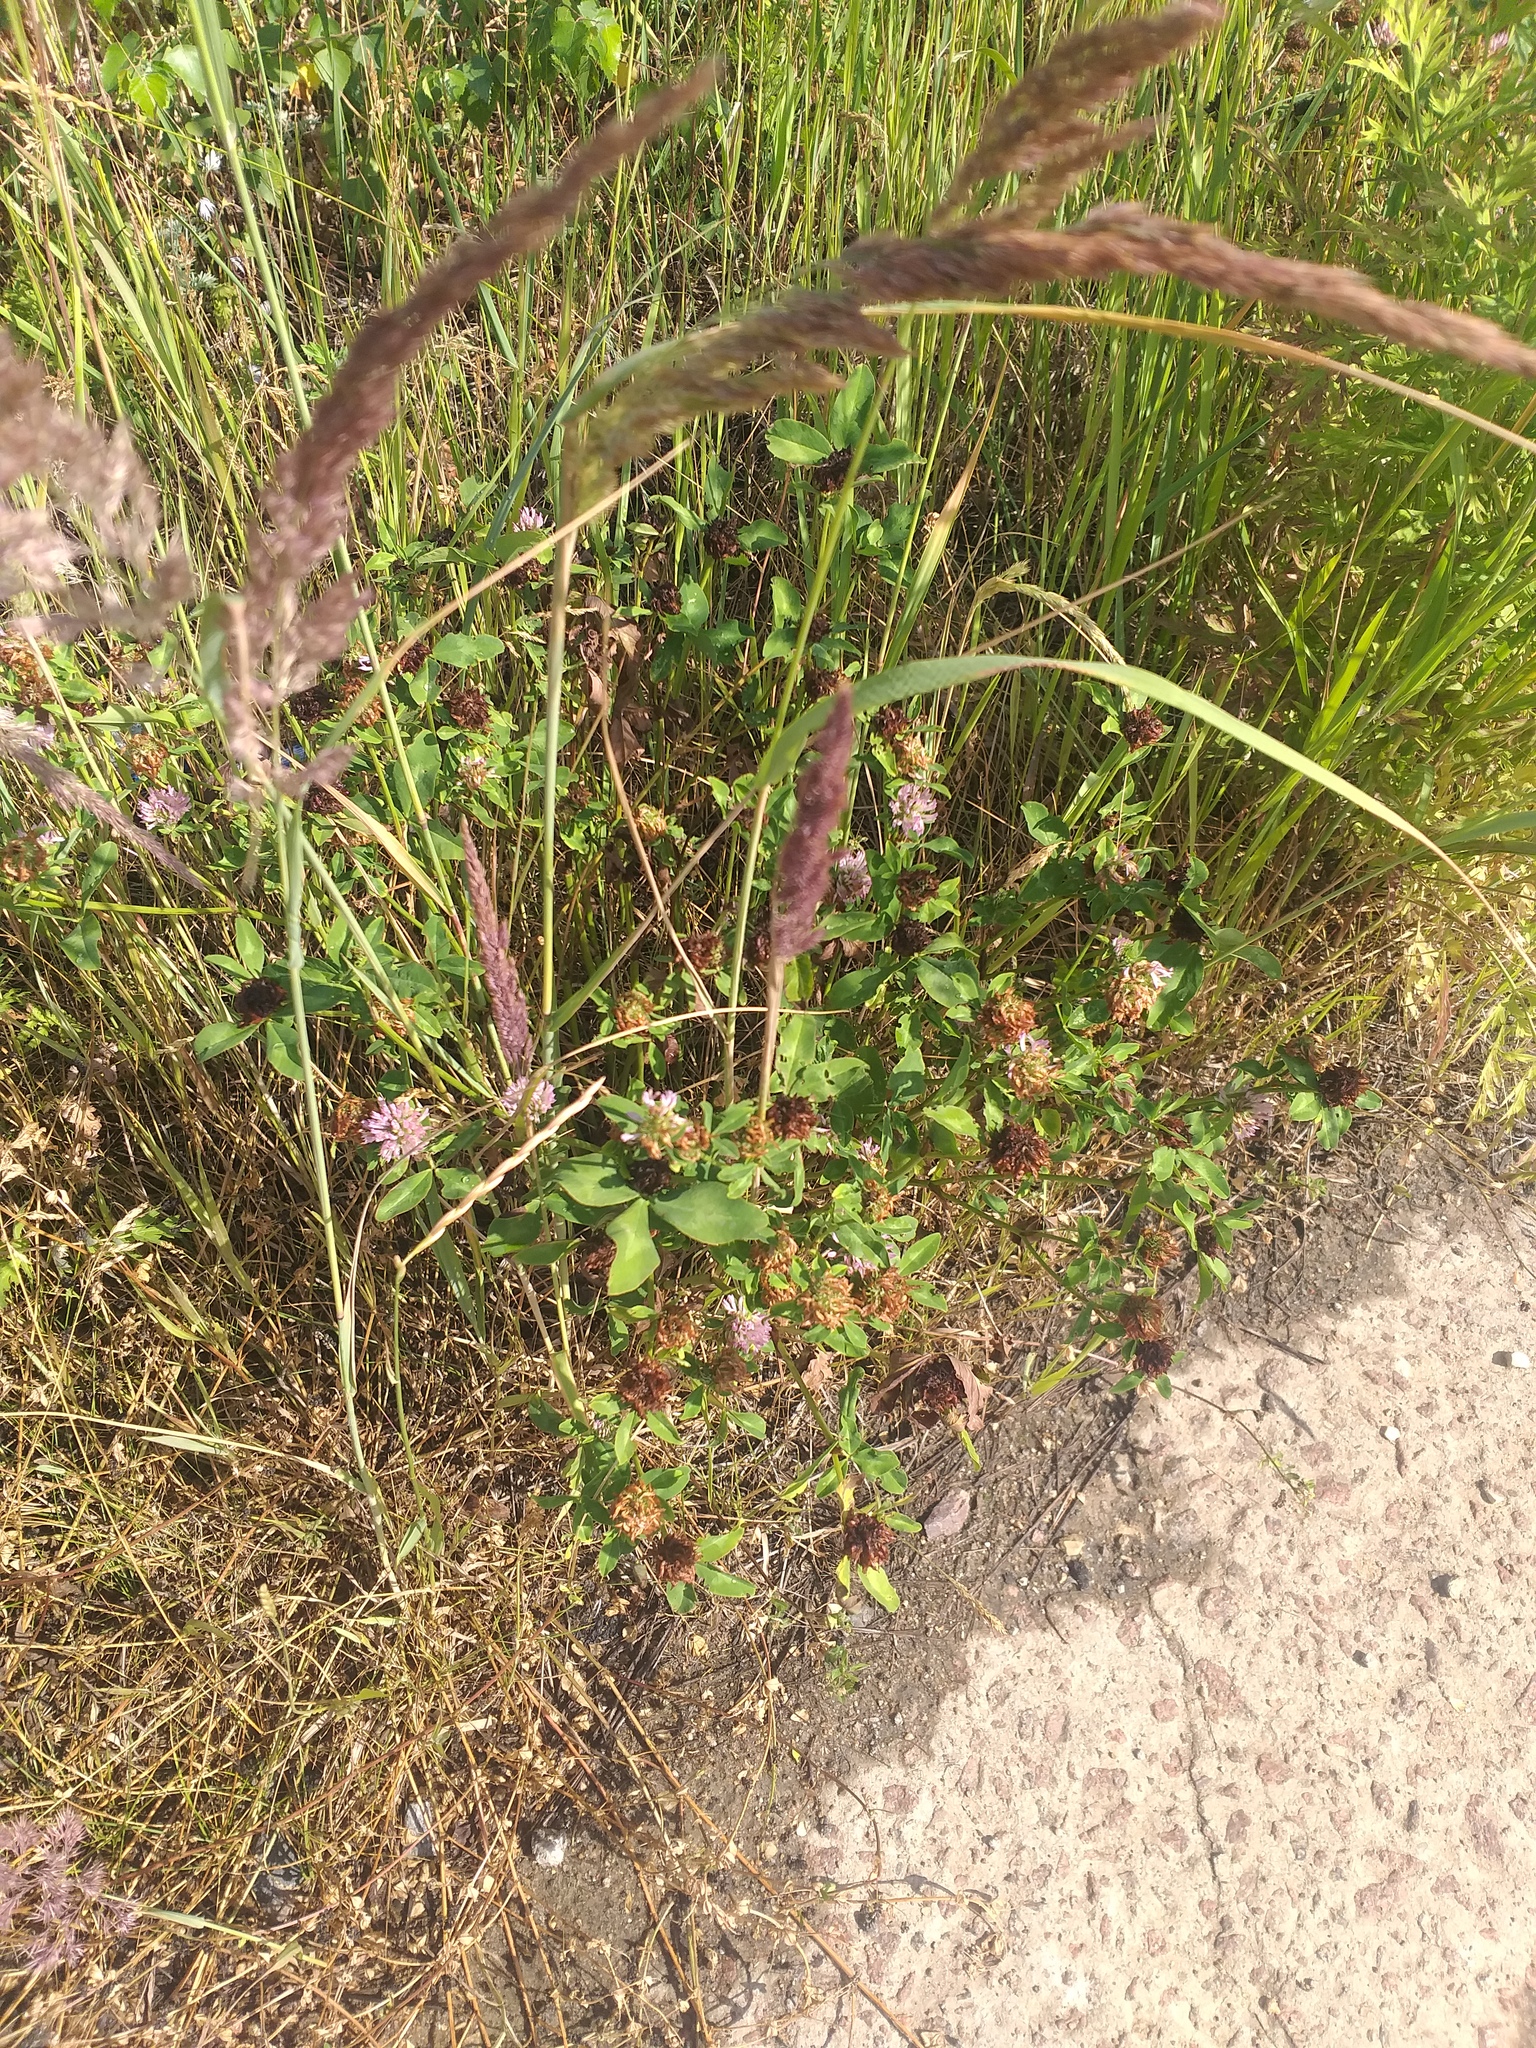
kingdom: Plantae
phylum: Tracheophyta
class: Magnoliopsida
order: Fabales
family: Fabaceae
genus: Trifolium
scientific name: Trifolium pratense
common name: Red clover
